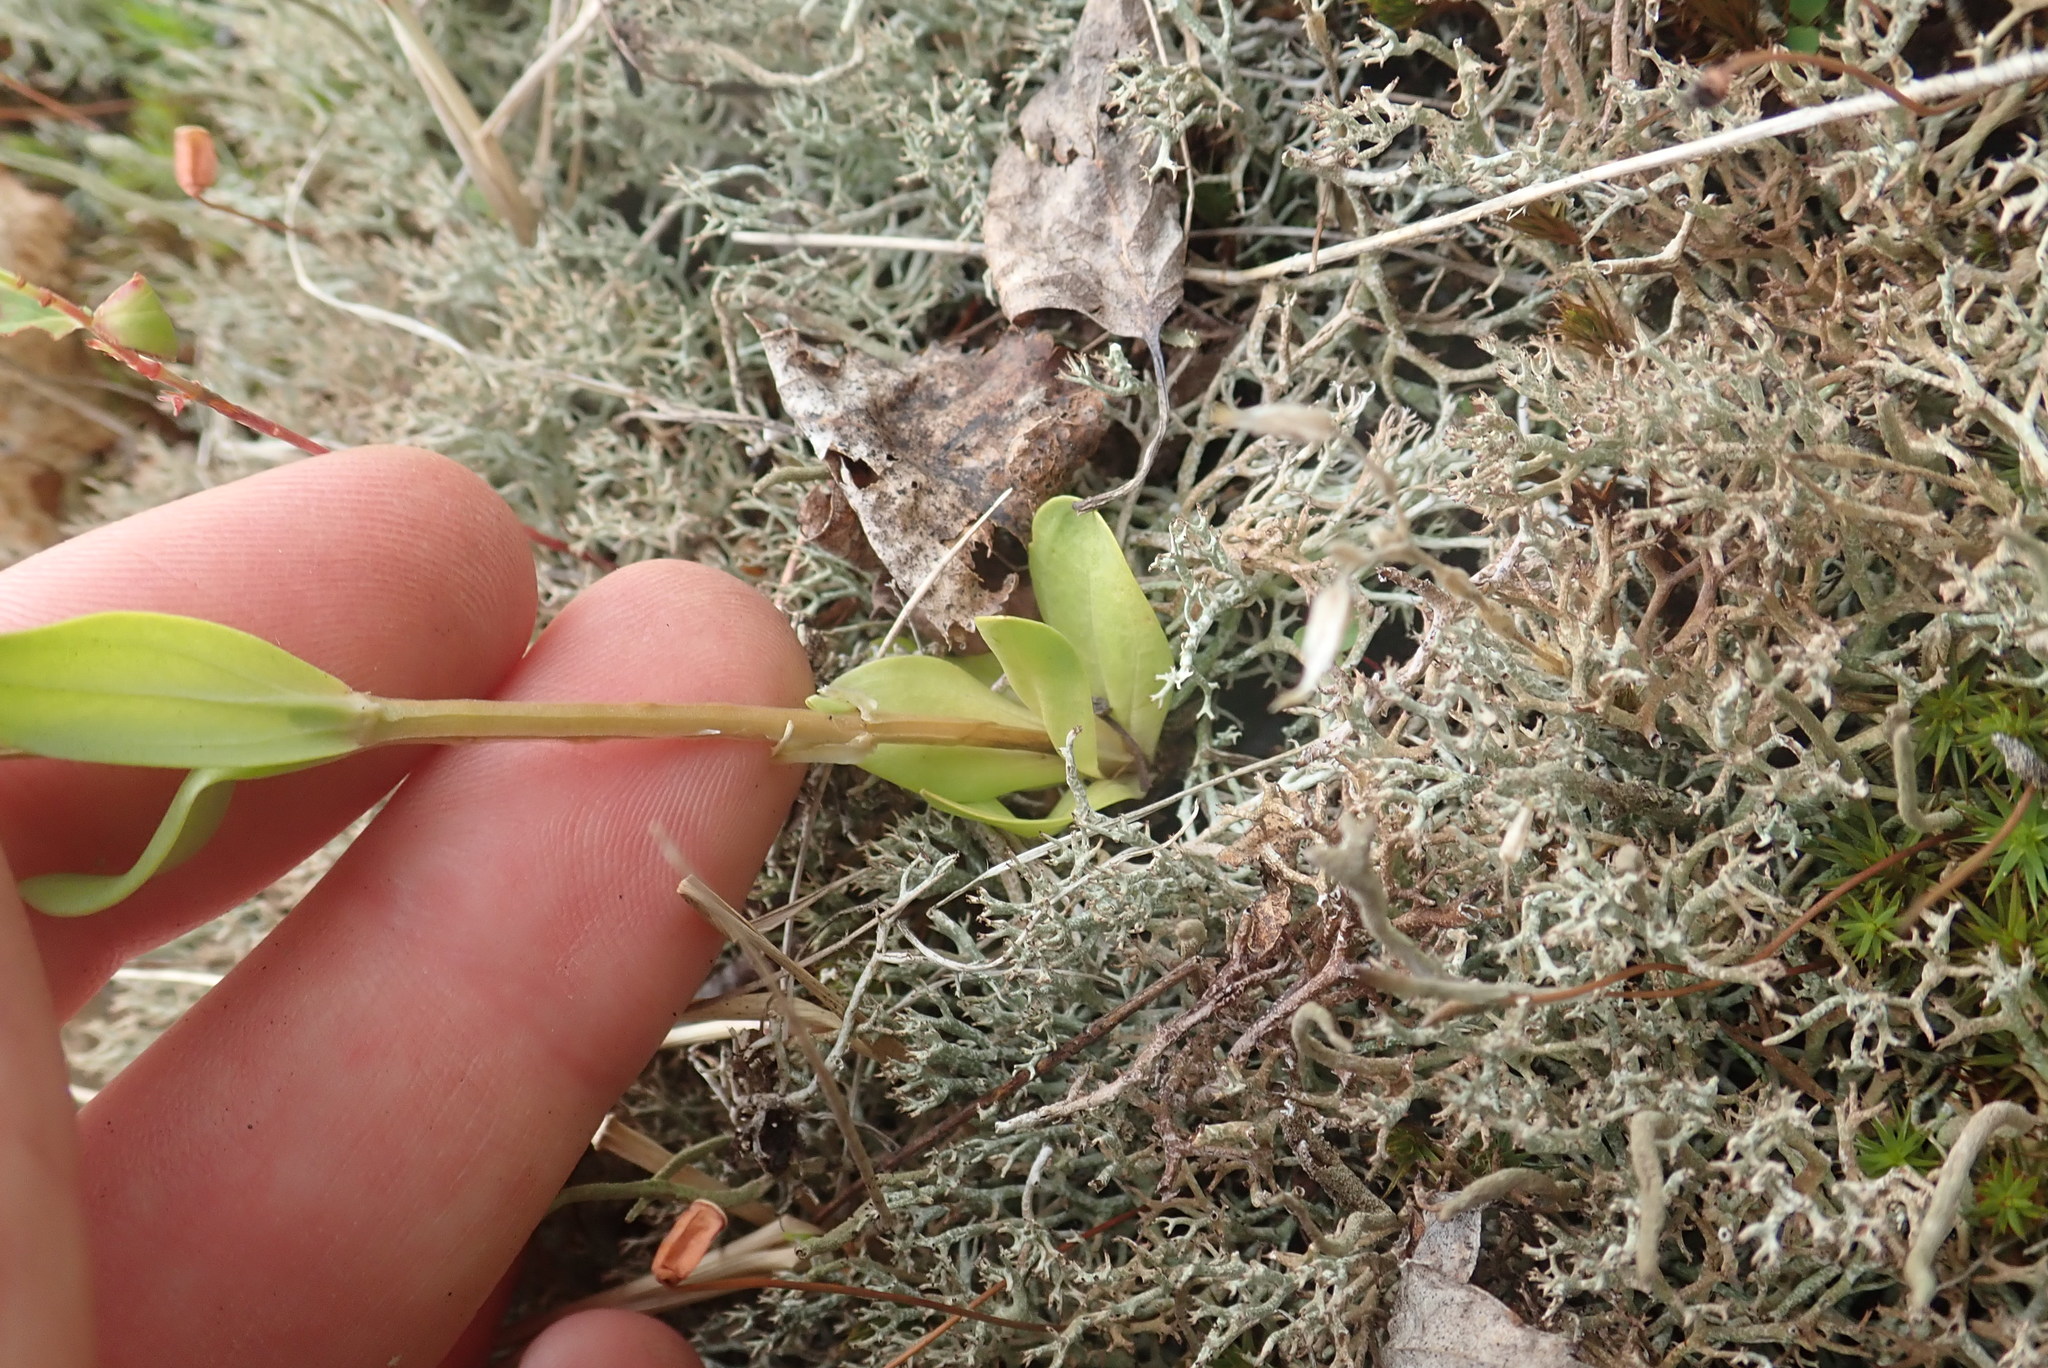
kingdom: Plantae
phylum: Tracheophyta
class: Magnoliopsida
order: Gentianales
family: Gentianaceae
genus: Centaurium
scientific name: Centaurium erythraea
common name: Common centaury
